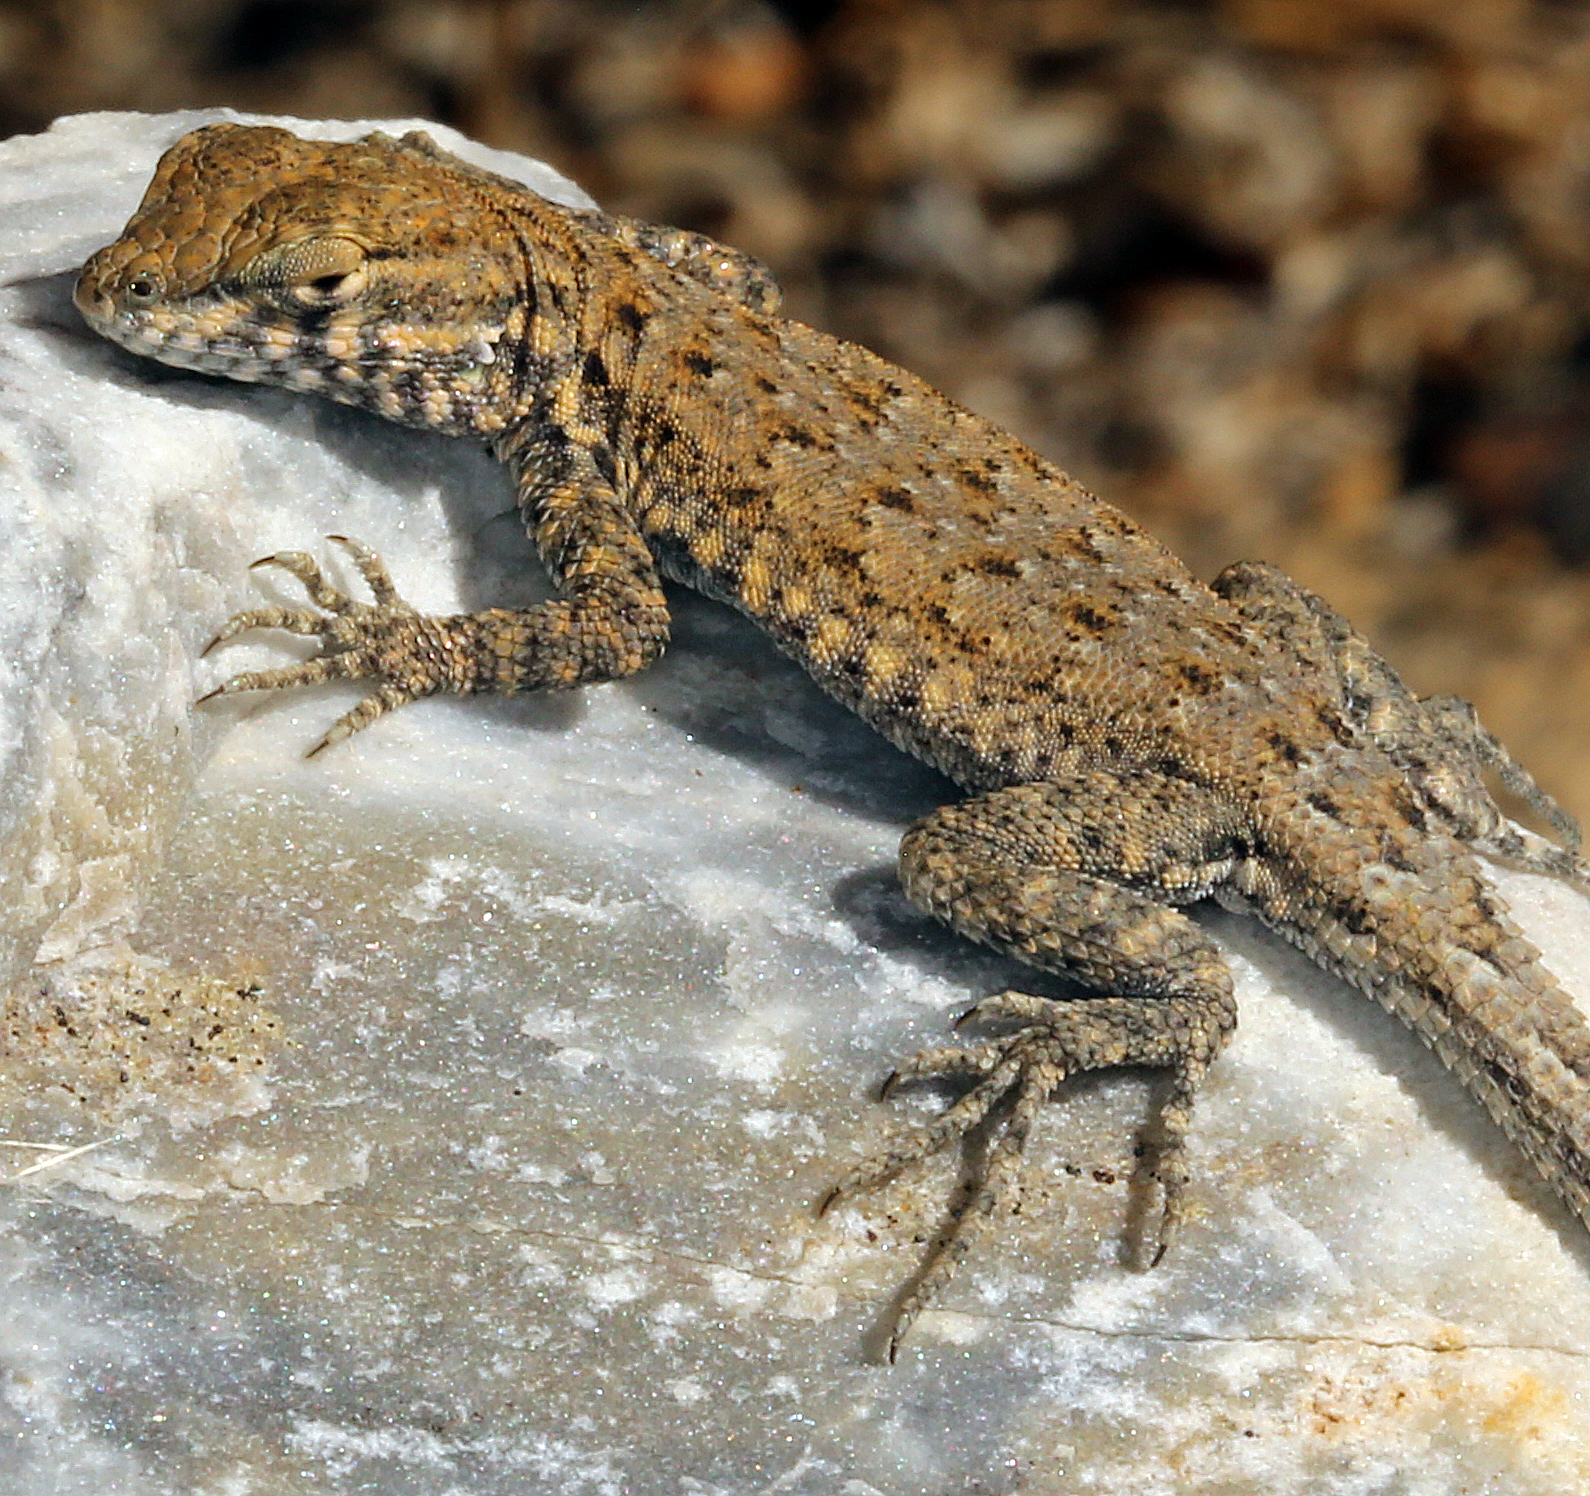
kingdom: Animalia
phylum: Chordata
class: Squamata
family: Phrynosomatidae
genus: Uta
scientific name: Uta stansburiana
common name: Side-blotched lizard
